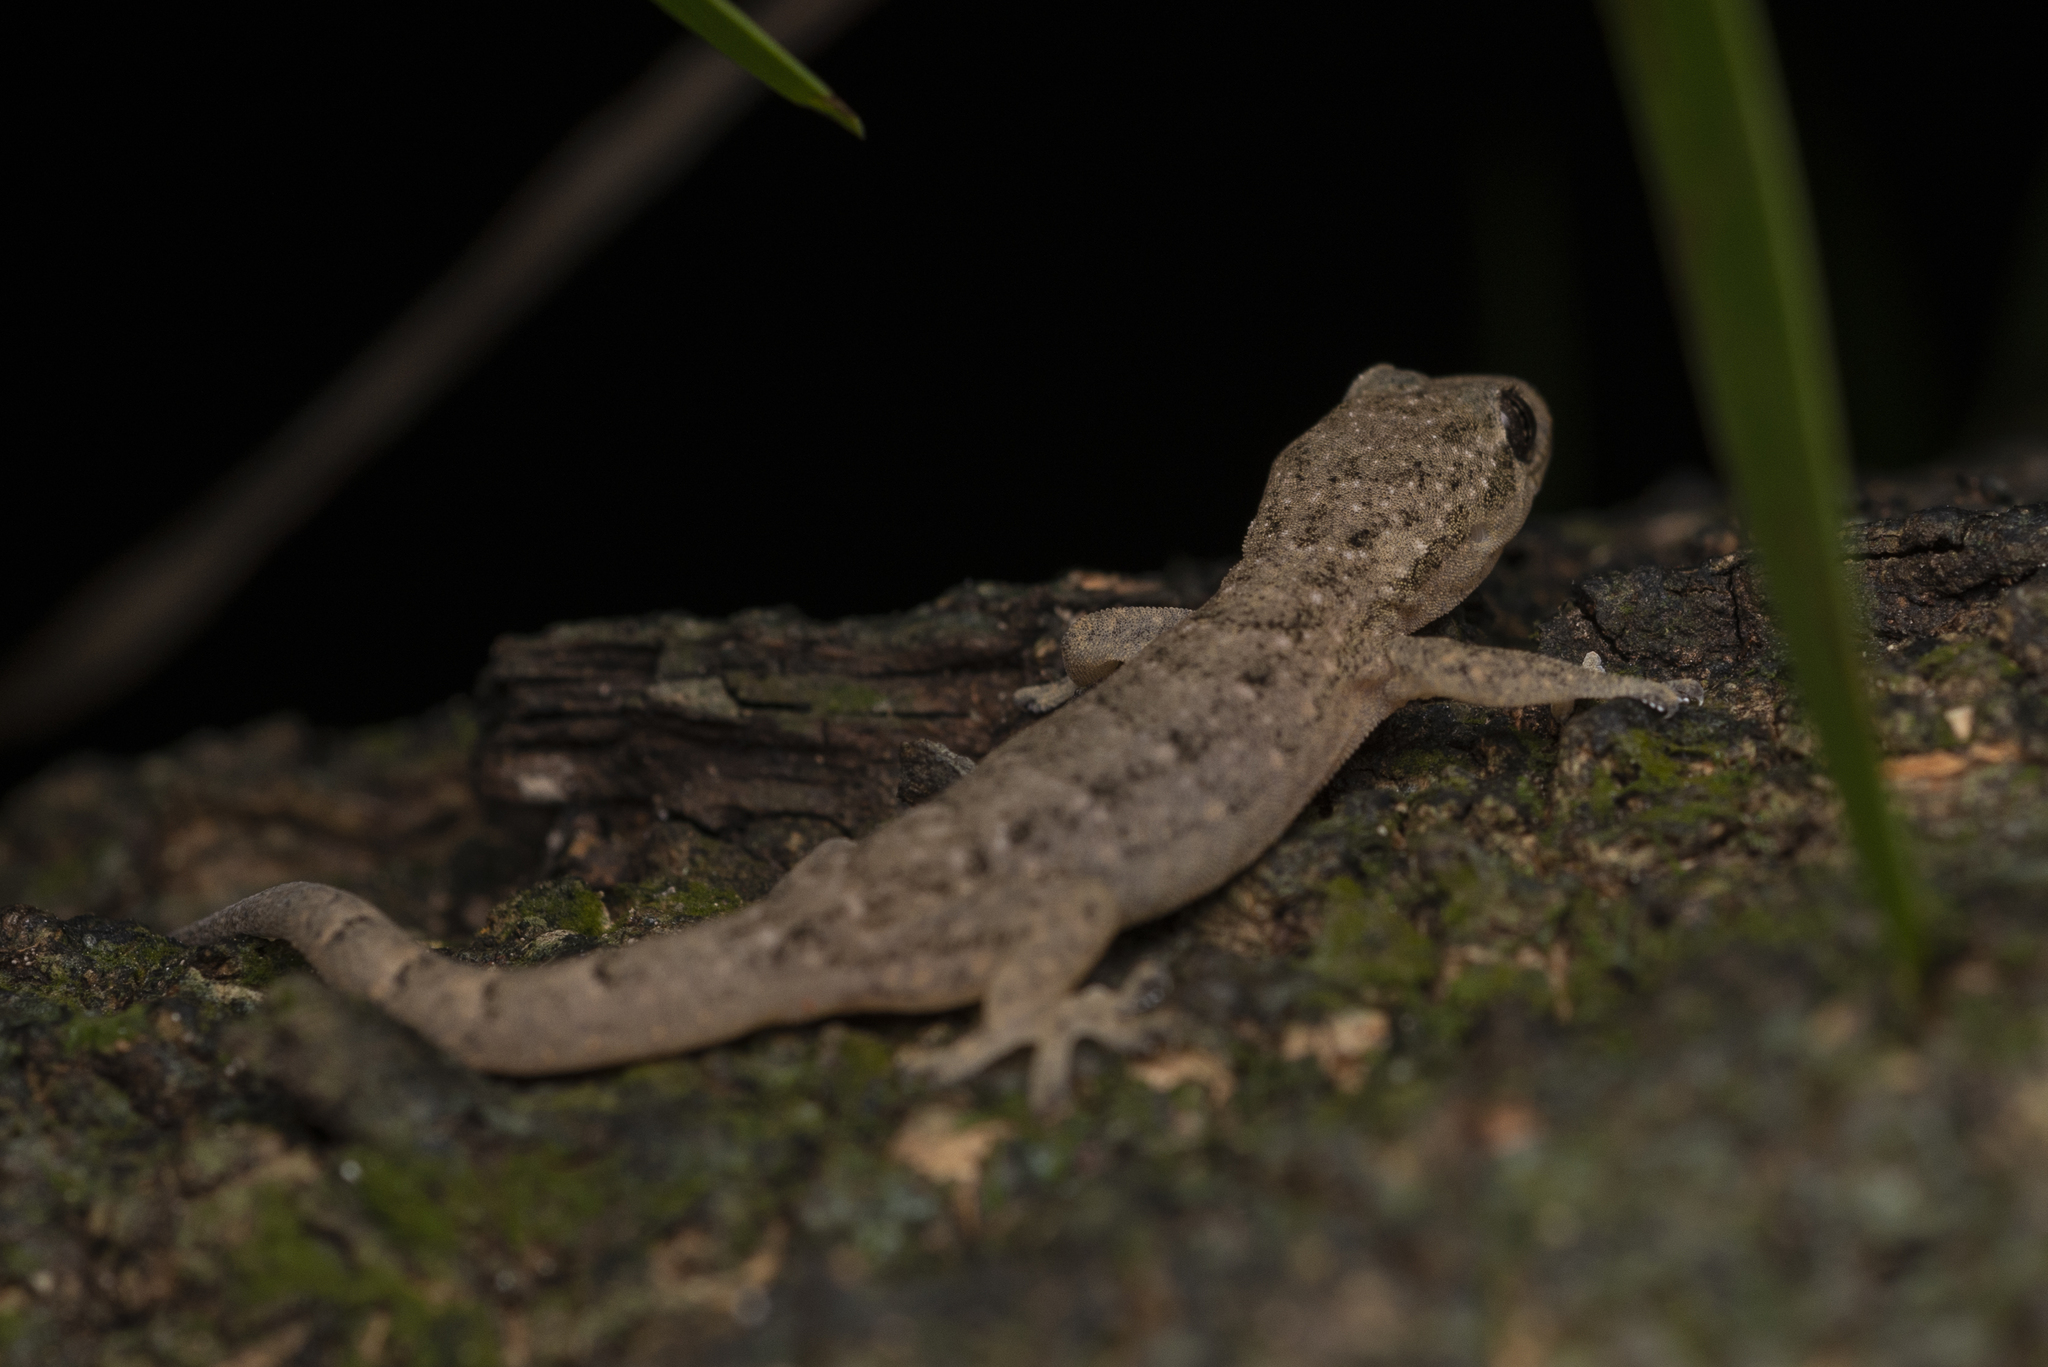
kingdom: Animalia
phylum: Chordata
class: Squamata
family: Gekkonidae
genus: Hemidactylus
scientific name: Hemidactylus bowringii
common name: Oriental leaf-toed gecko
